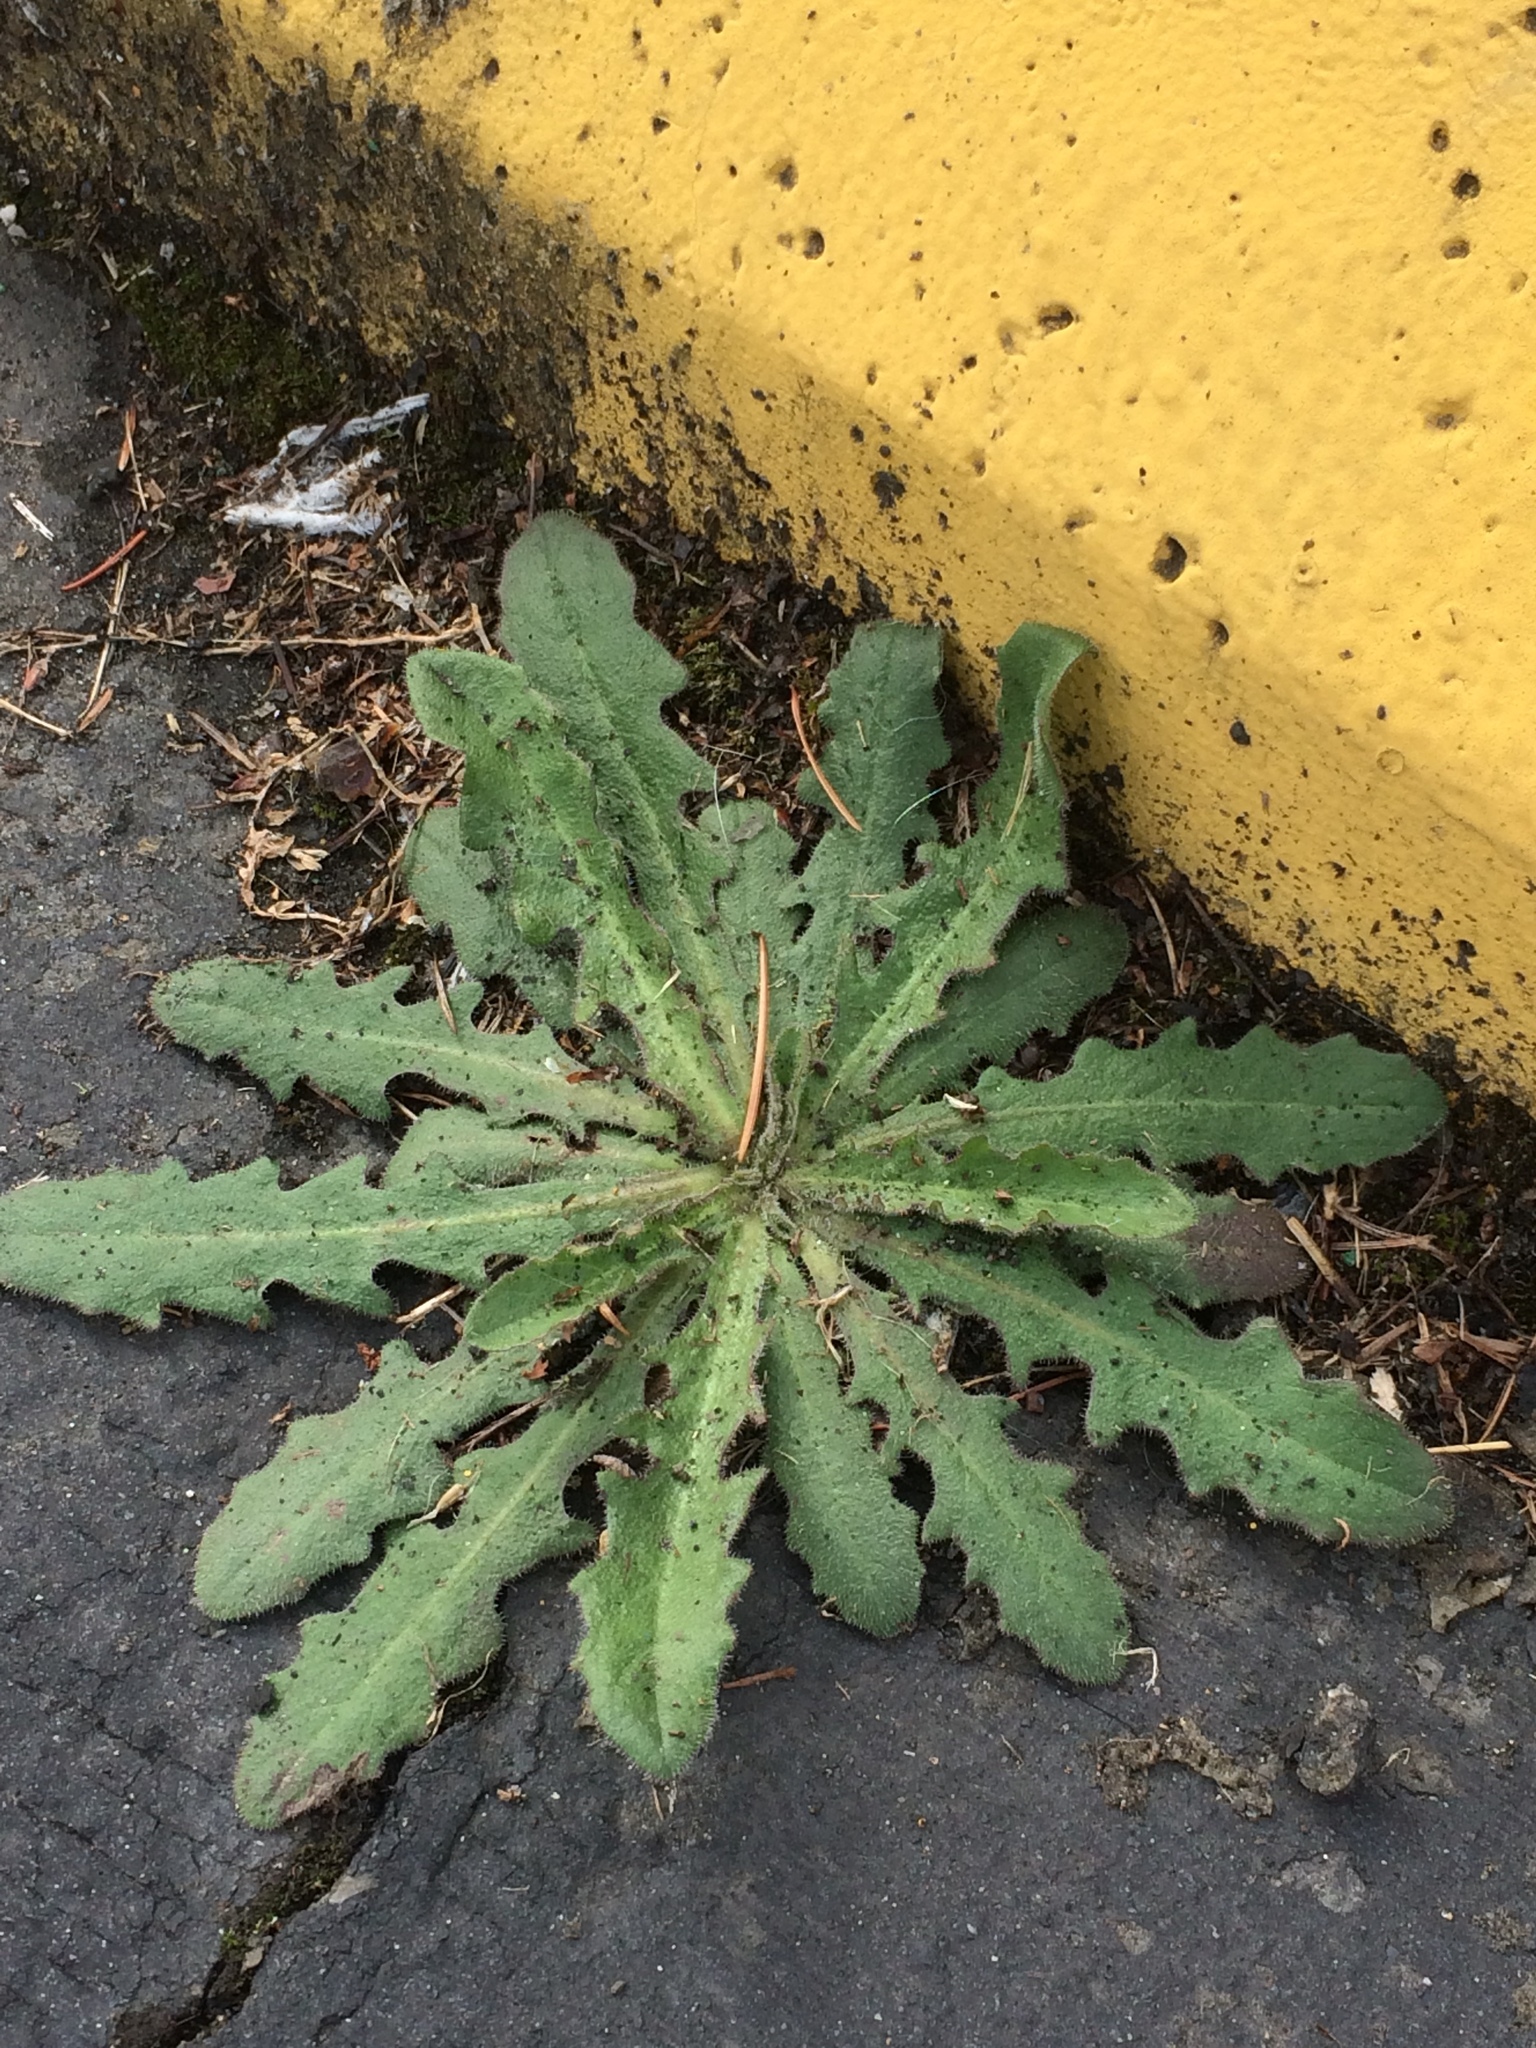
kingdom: Plantae
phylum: Tracheophyta
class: Magnoliopsida
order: Asterales
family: Asteraceae
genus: Hypochaeris
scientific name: Hypochaeris radicata
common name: Flatweed
